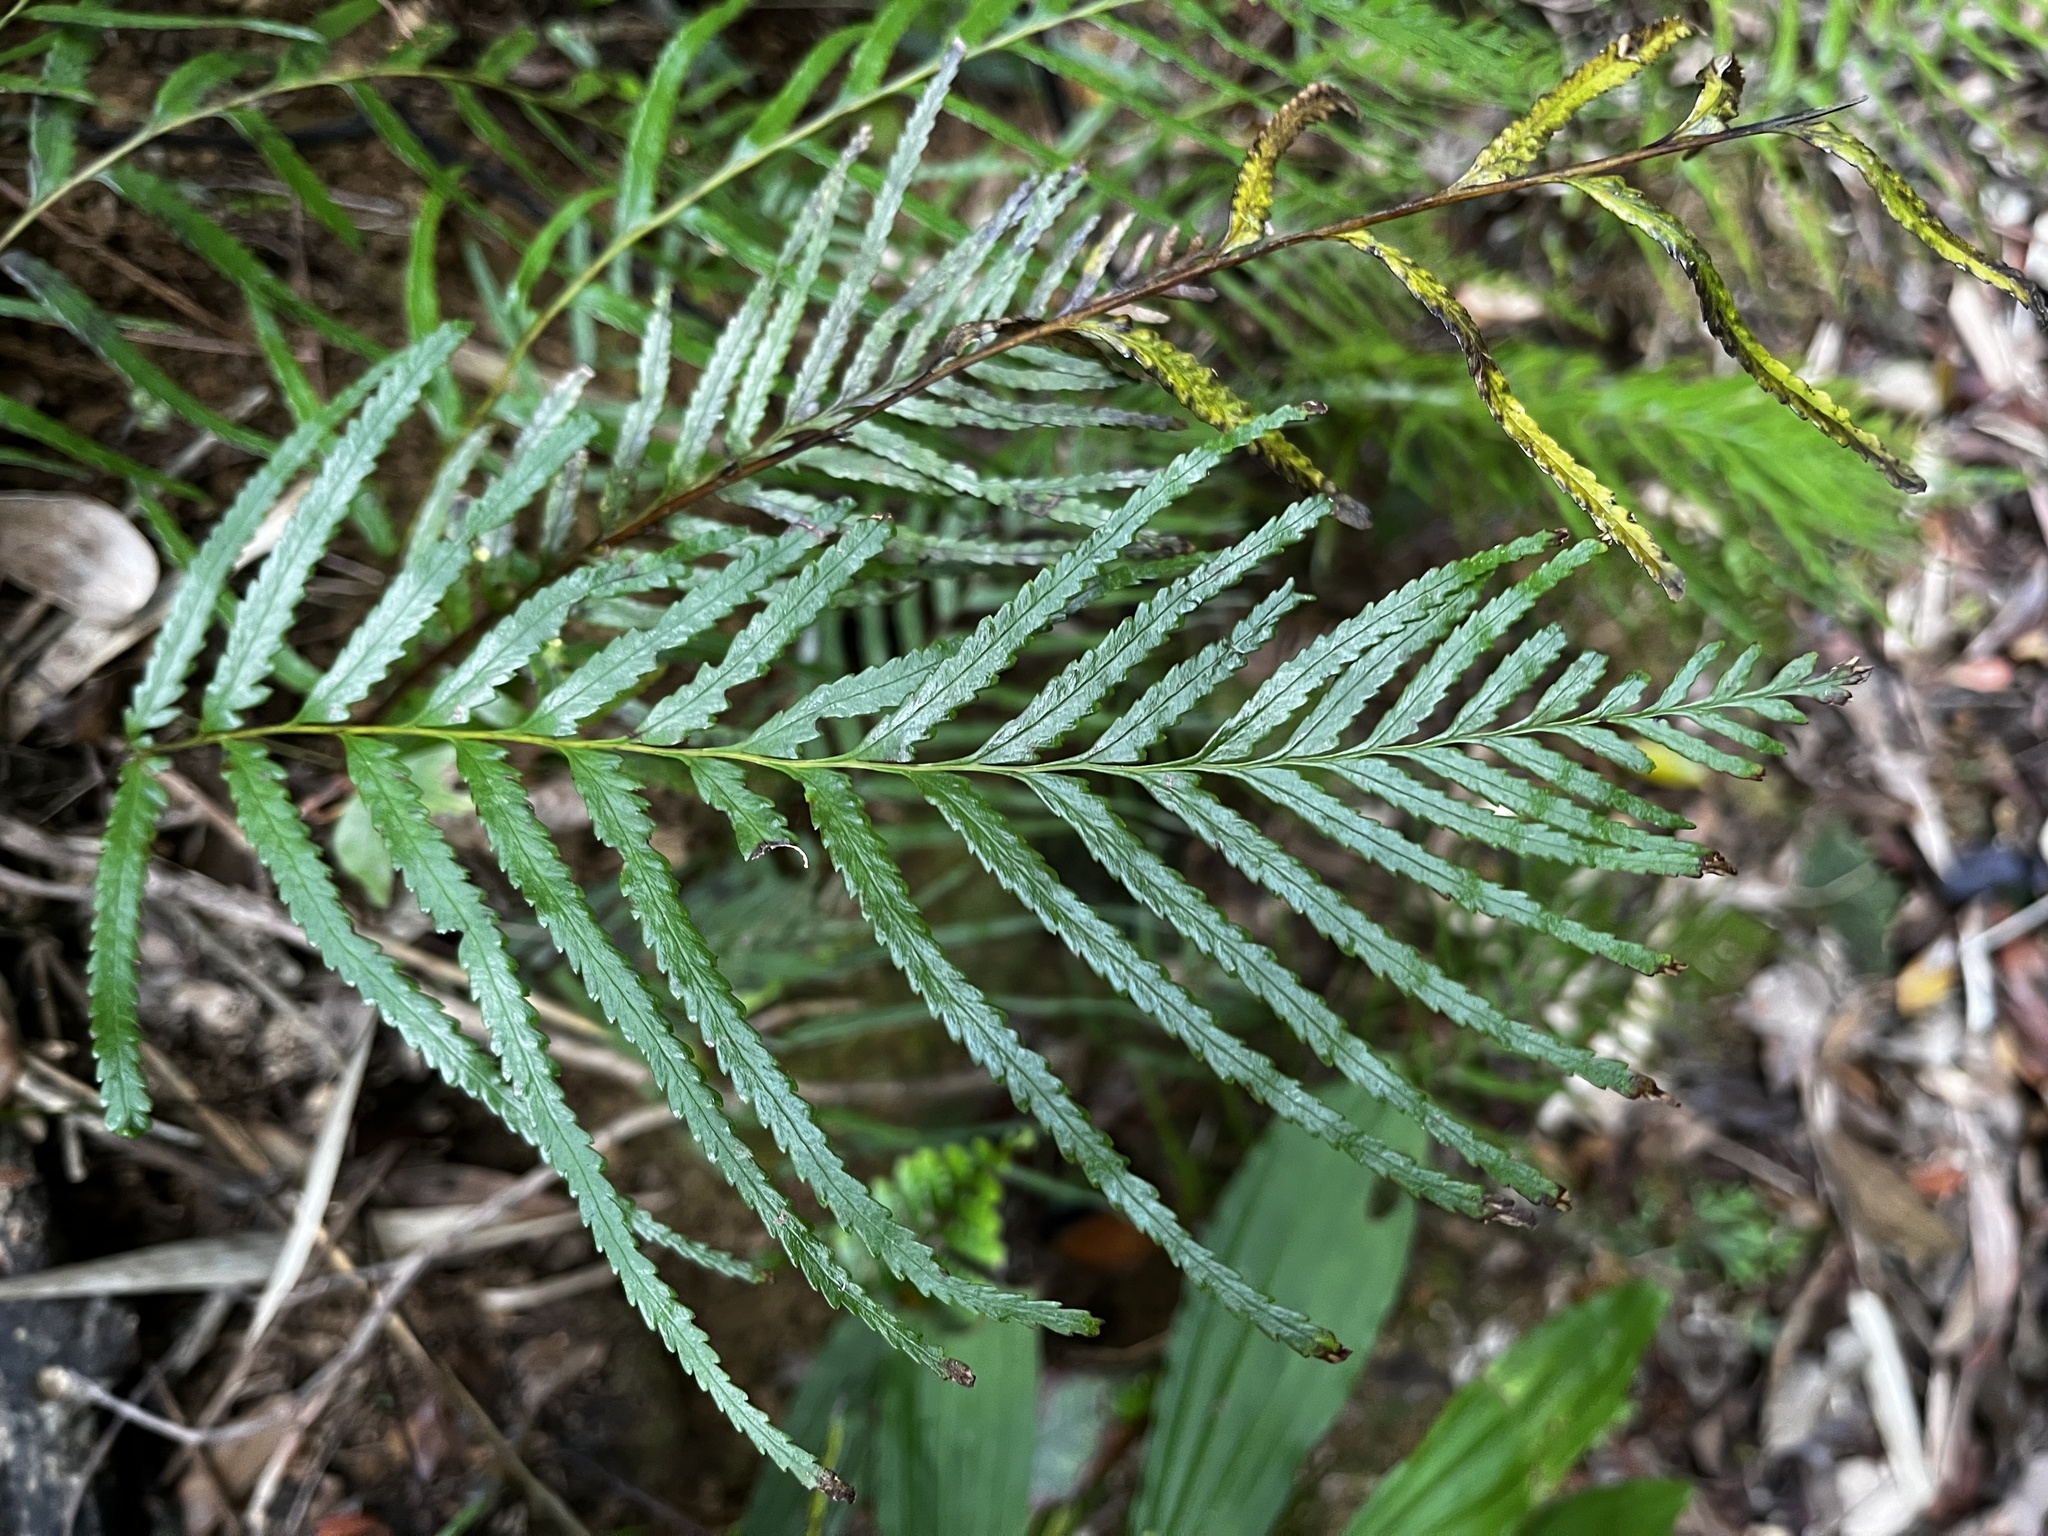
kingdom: Plantae
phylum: Tracheophyta
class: Polypodiopsida
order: Polypodiales
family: Lindsaeaceae
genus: Tapeinidium
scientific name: Tapeinidium pinnatum
